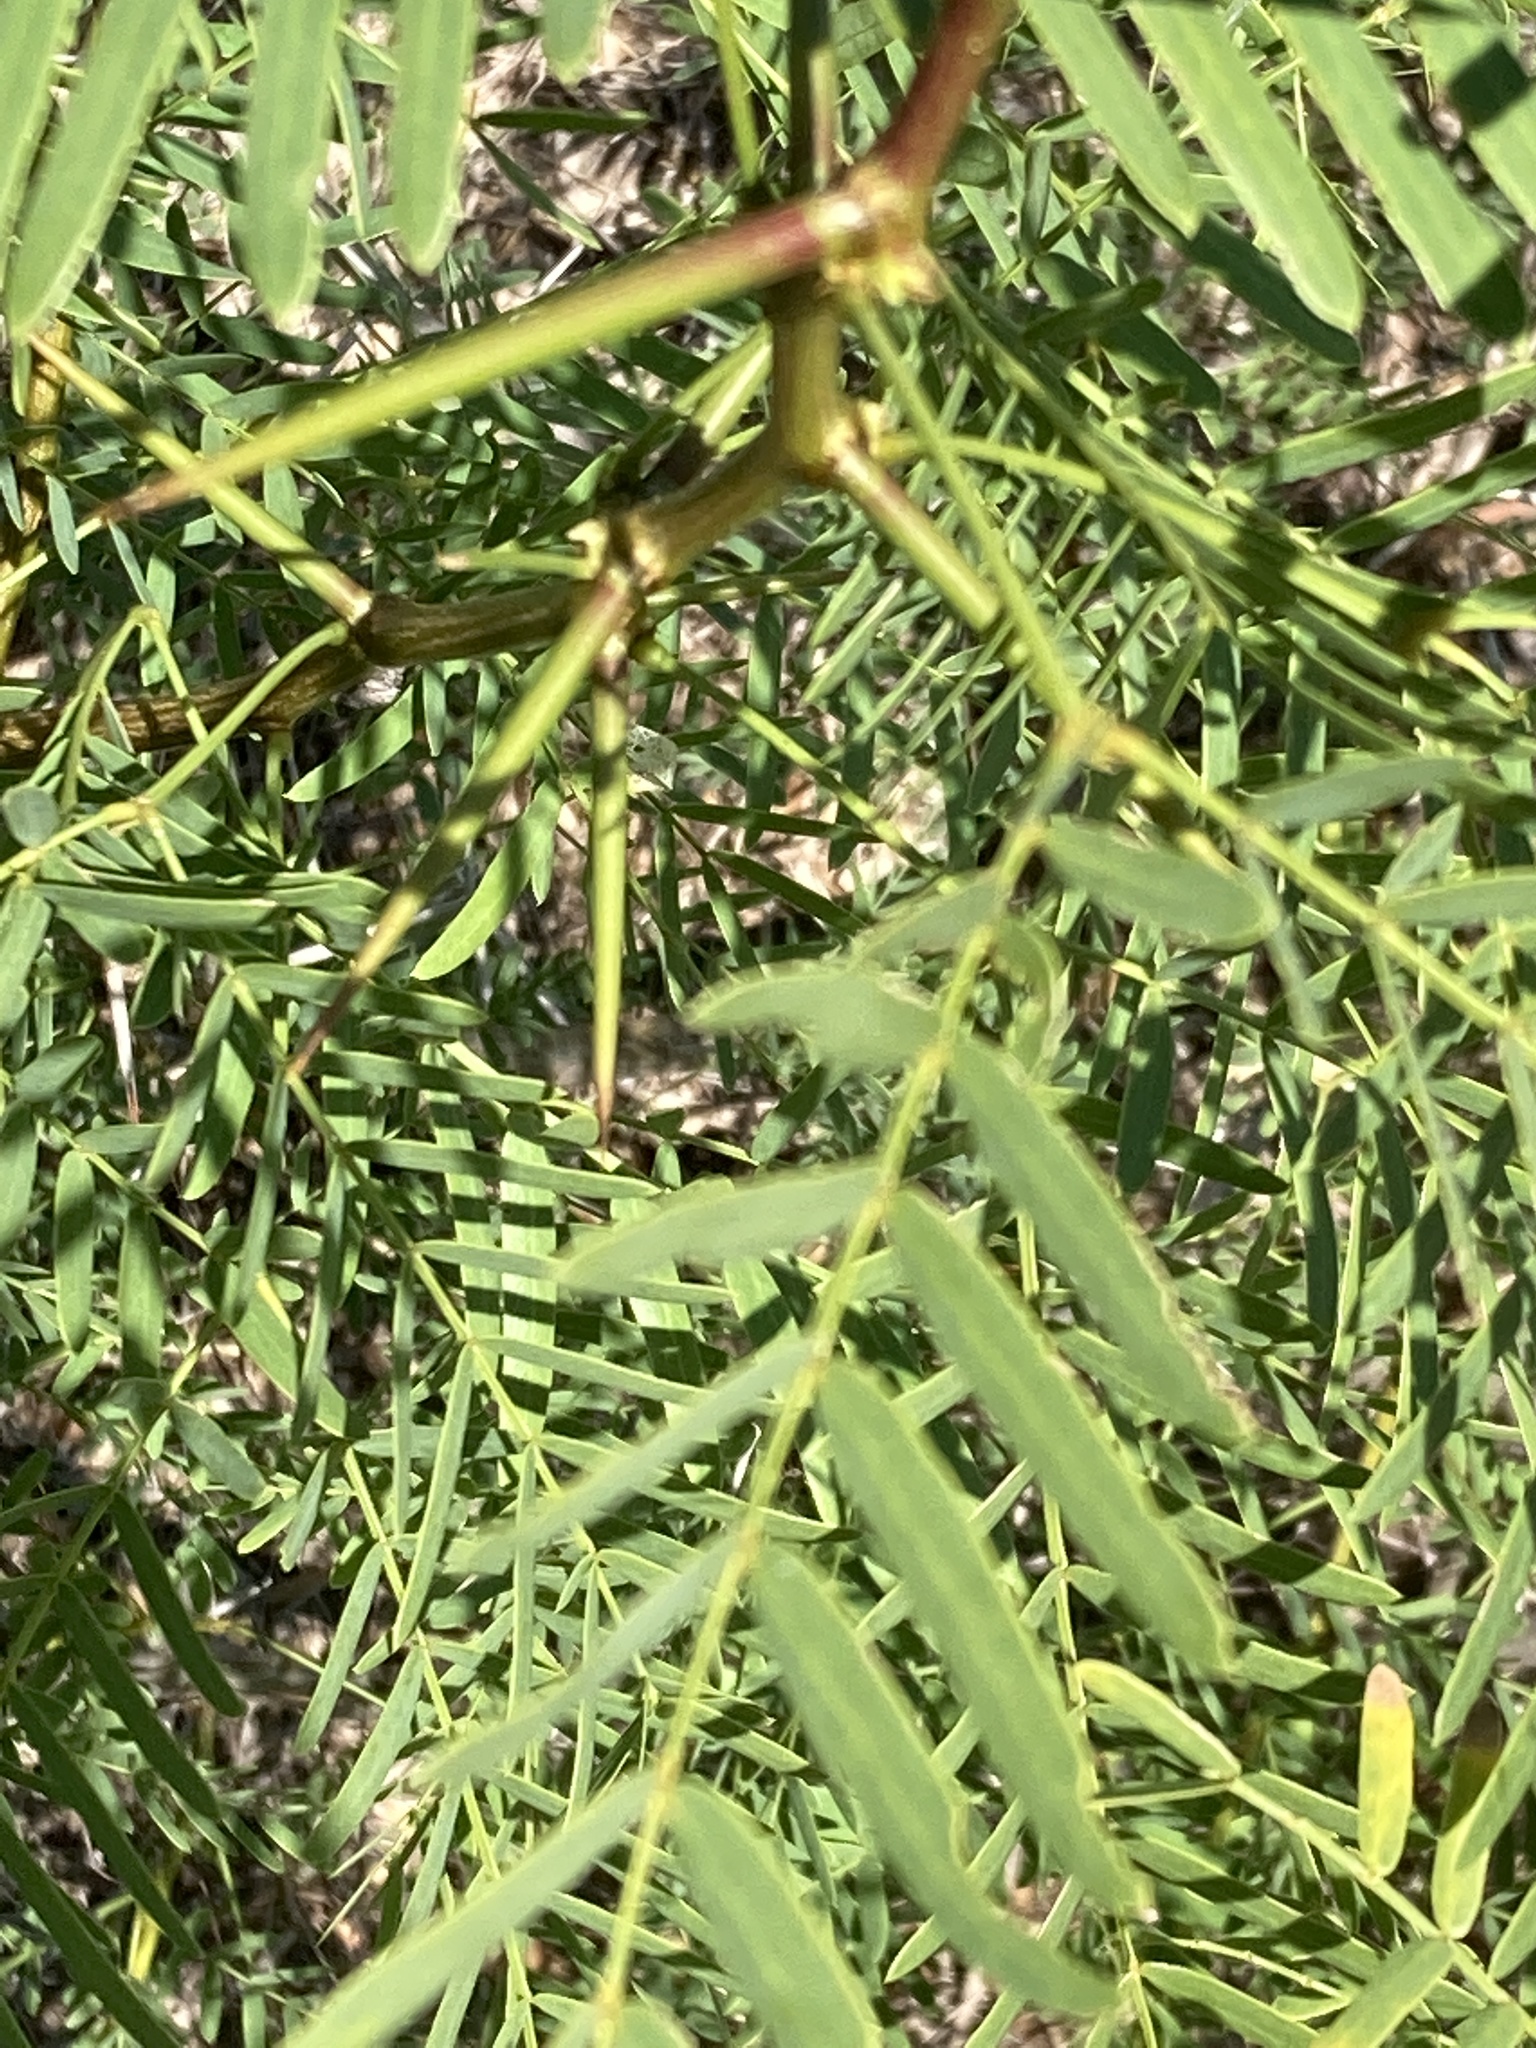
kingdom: Plantae
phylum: Tracheophyta
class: Magnoliopsida
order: Fabales
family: Fabaceae
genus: Prosopis
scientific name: Prosopis glandulosa
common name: Honey mesquite
